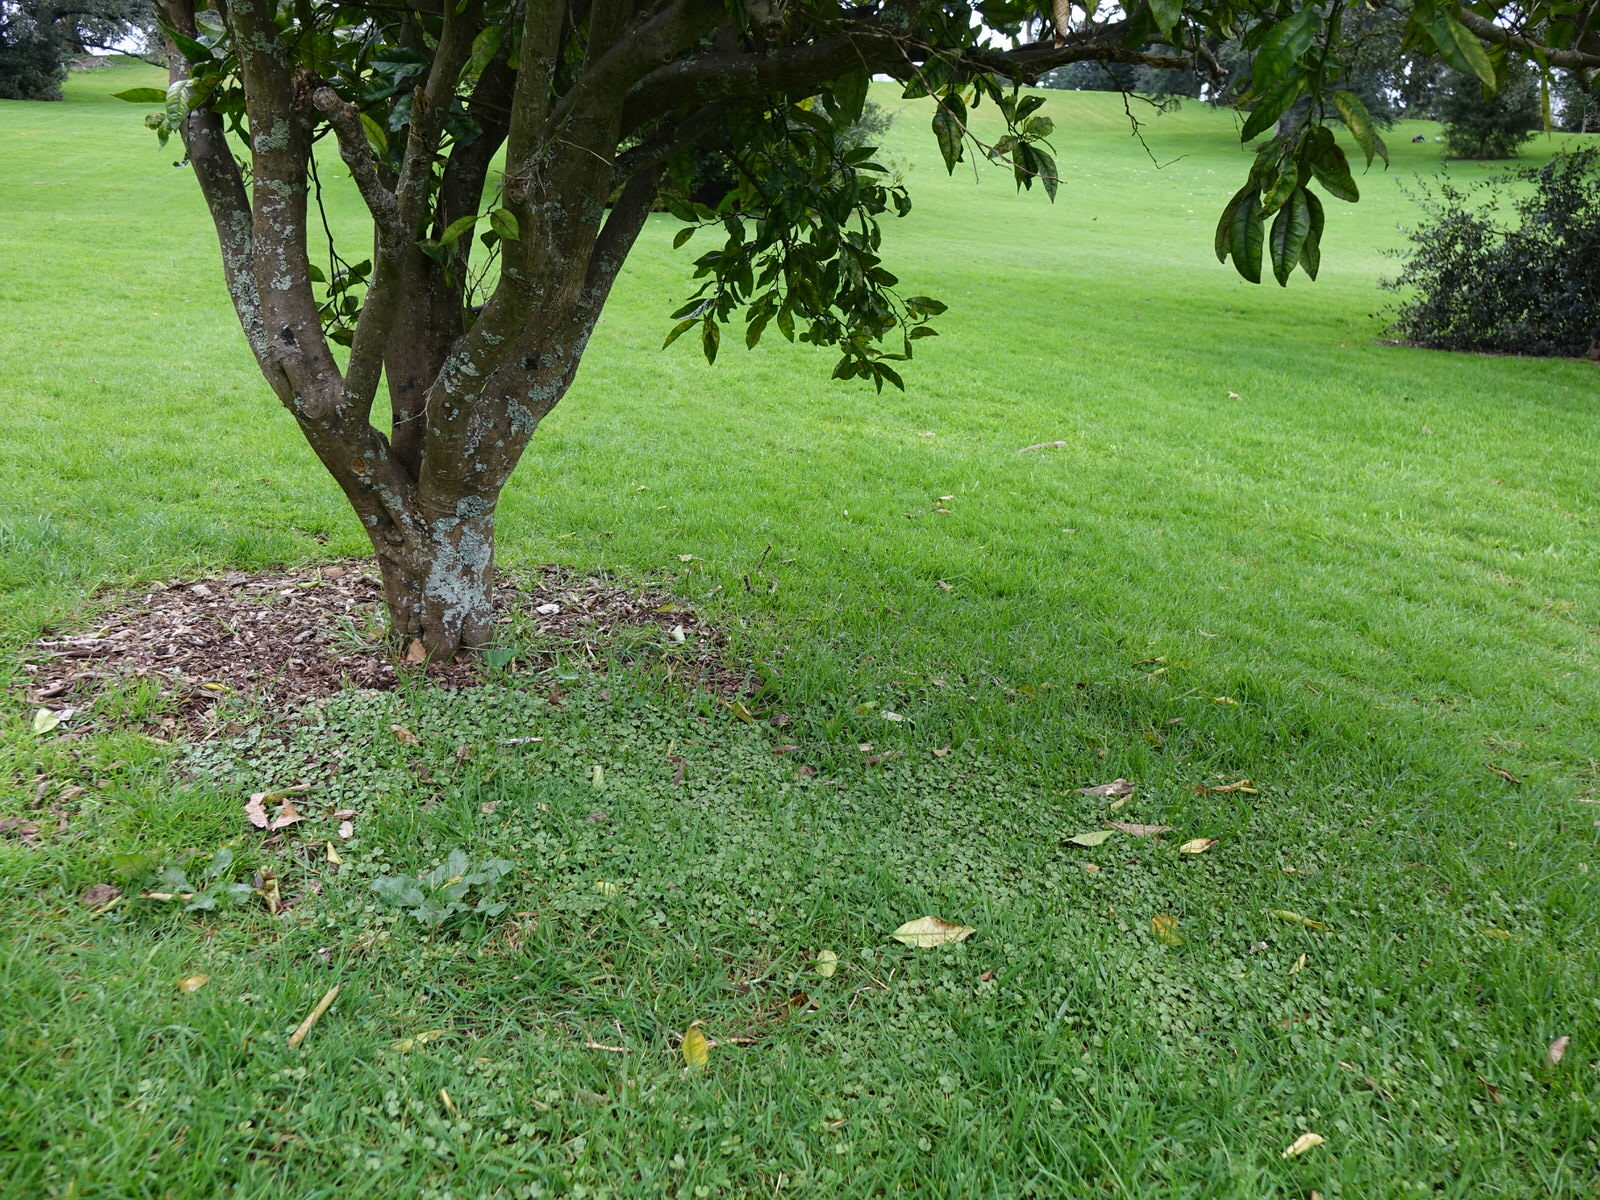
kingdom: Plantae
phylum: Tracheophyta
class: Magnoliopsida
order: Apiales
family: Araliaceae
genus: Hydrocotyle
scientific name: Hydrocotyle moschata
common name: Hairy pennywort
